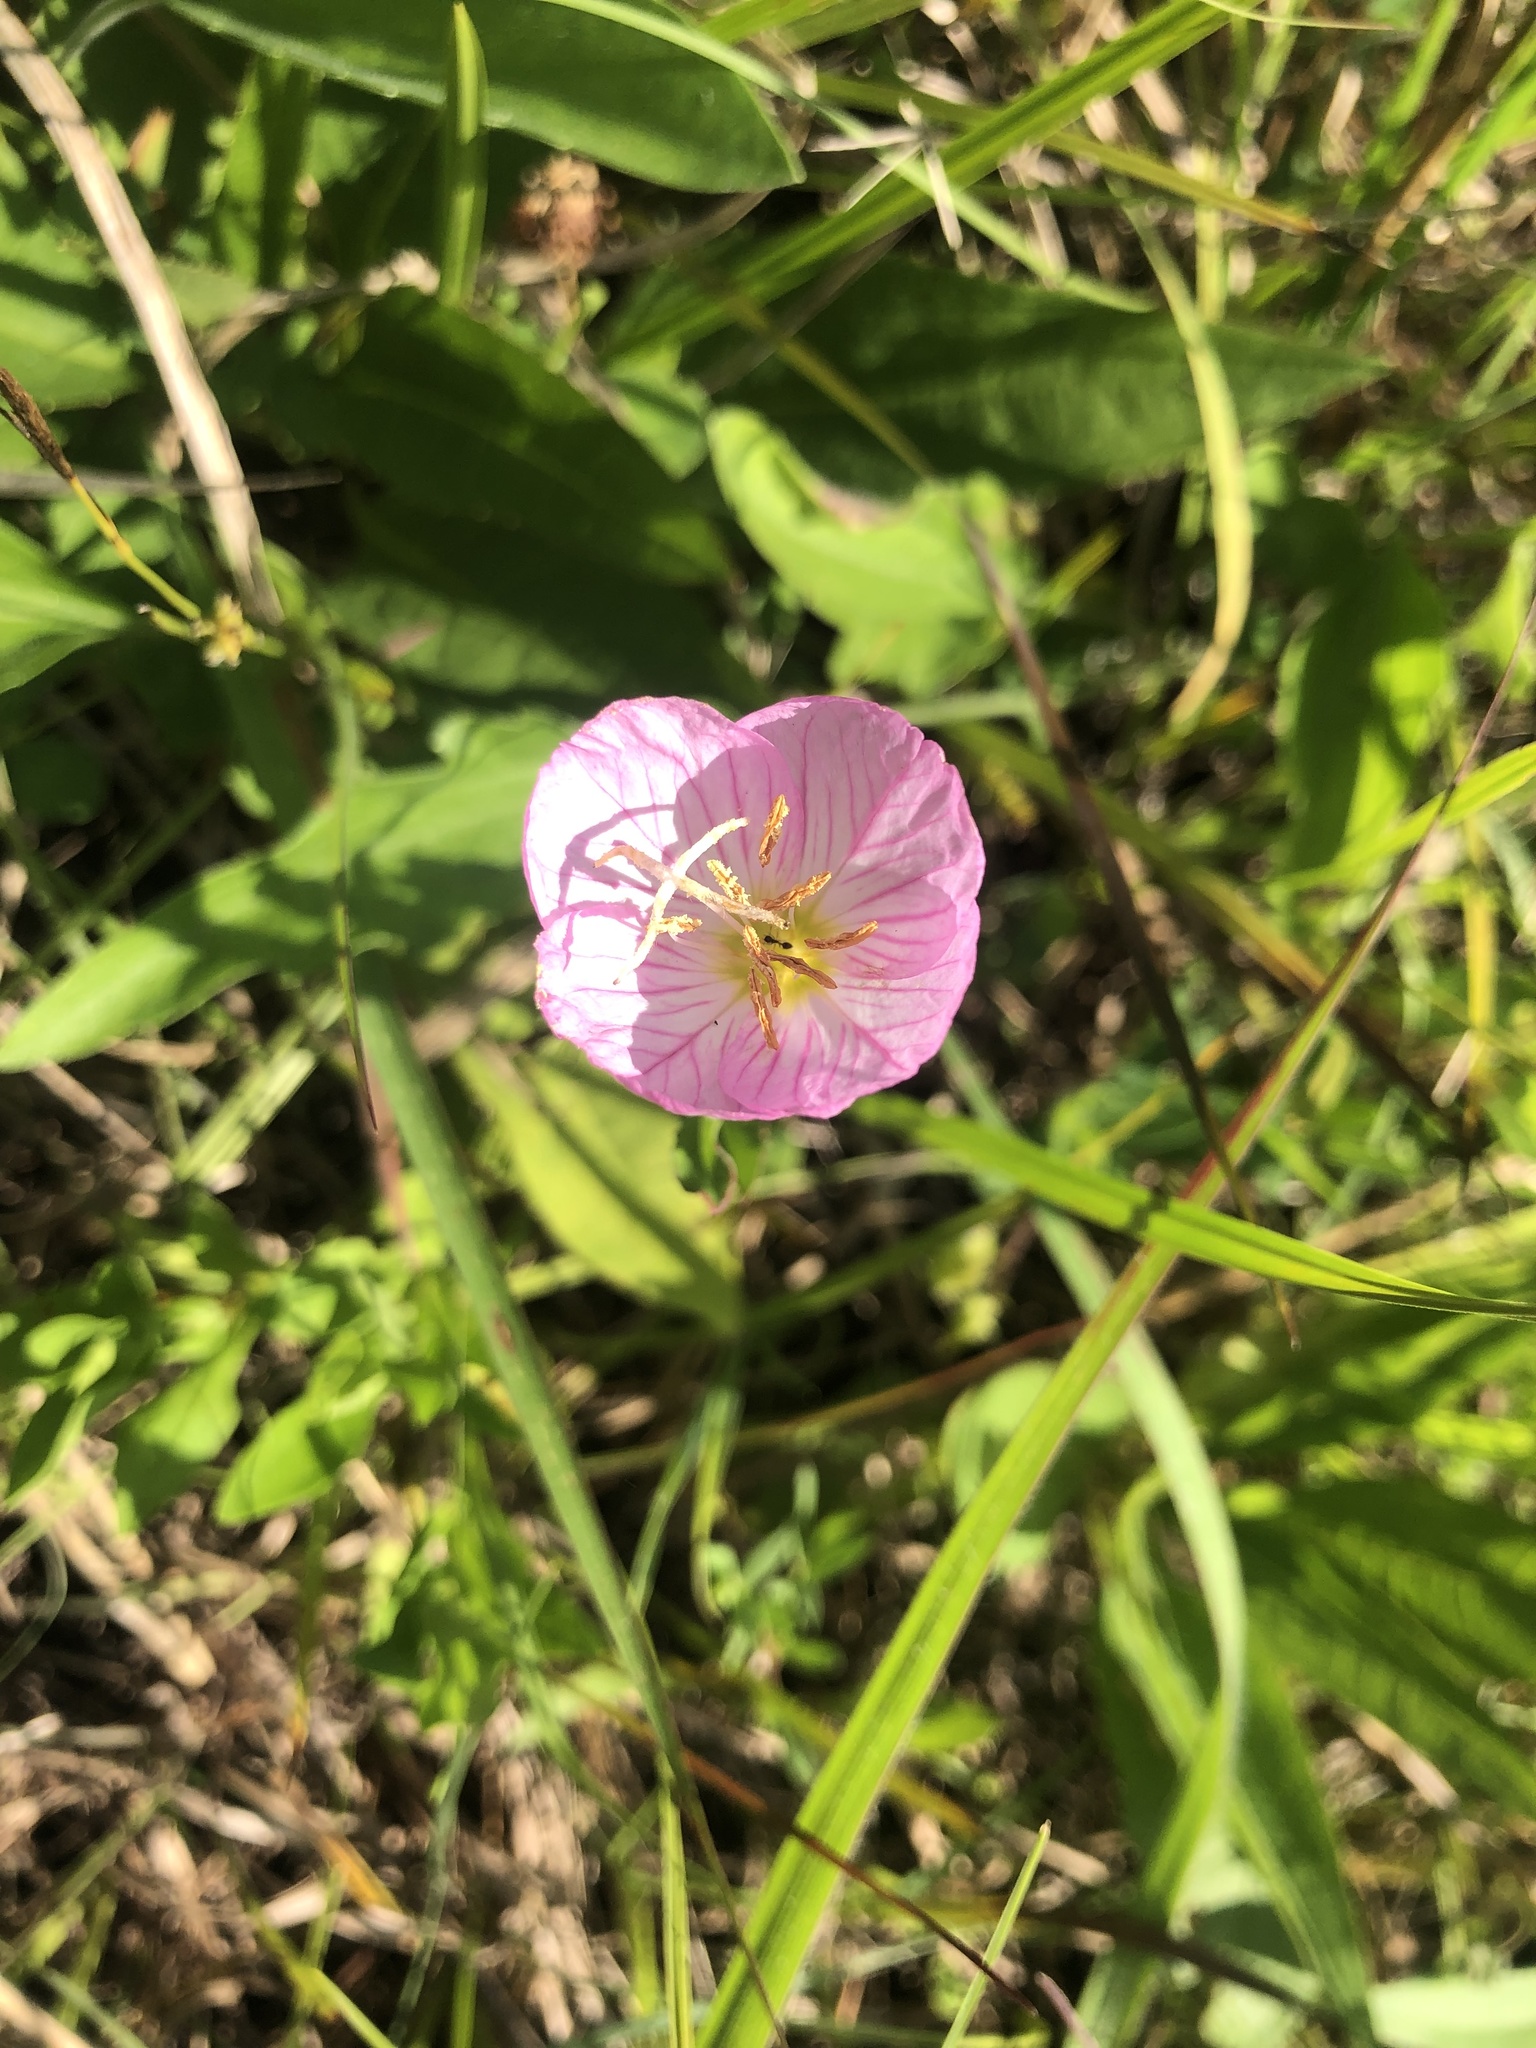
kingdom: Plantae
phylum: Tracheophyta
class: Magnoliopsida
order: Myrtales
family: Onagraceae
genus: Oenothera
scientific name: Oenothera speciosa
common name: White evening-primrose
